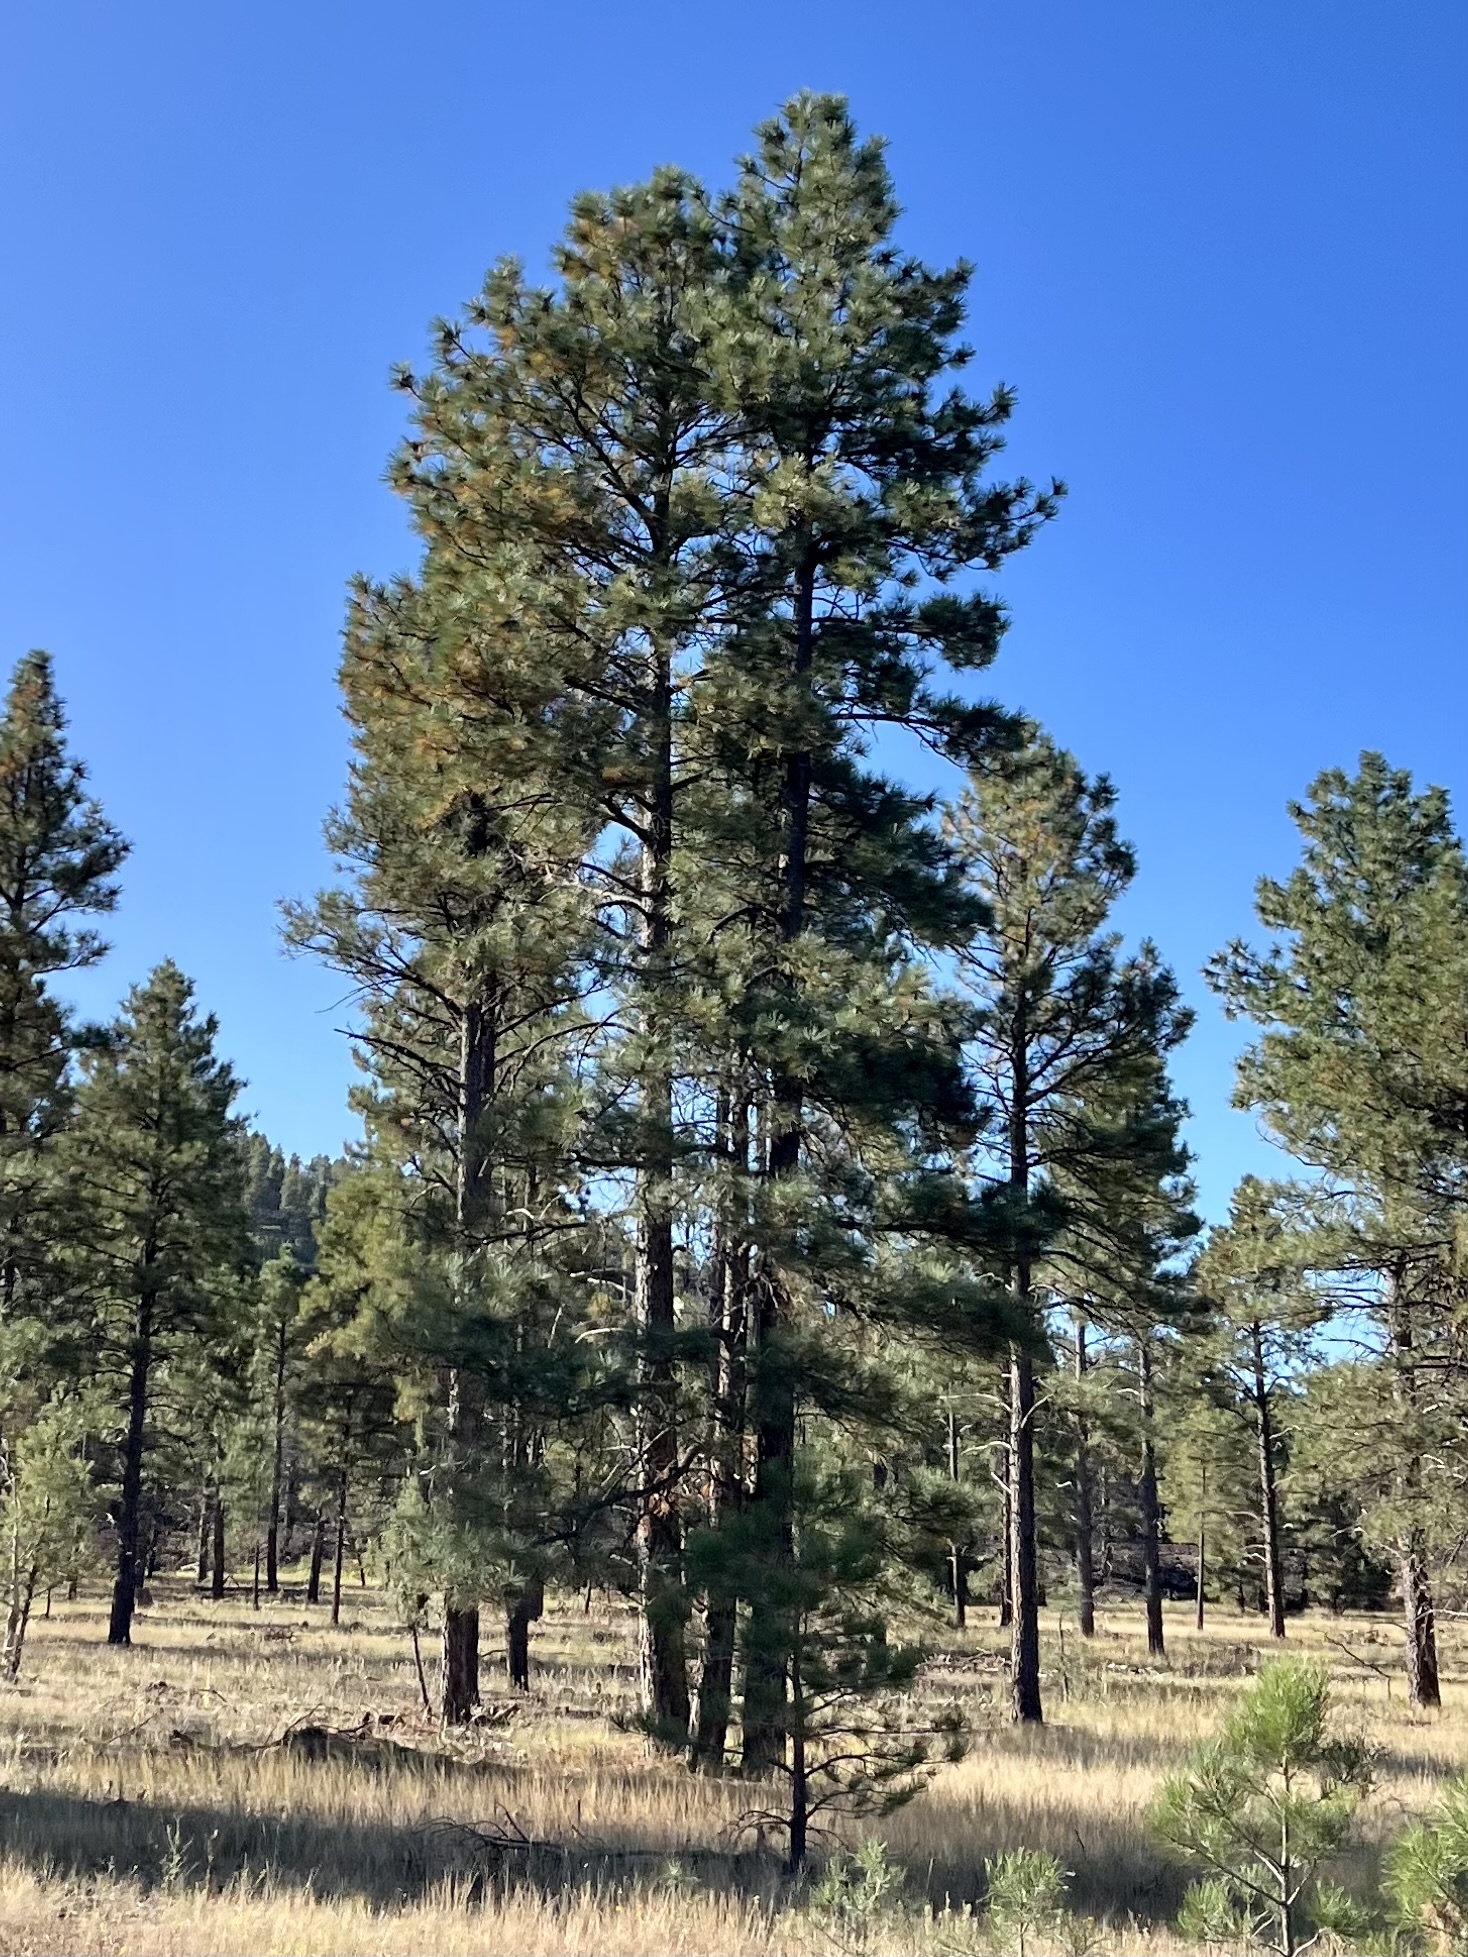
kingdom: Plantae
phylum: Tracheophyta
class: Pinopsida
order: Pinales
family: Pinaceae
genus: Pinus
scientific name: Pinus ponderosa
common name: Western yellow-pine
